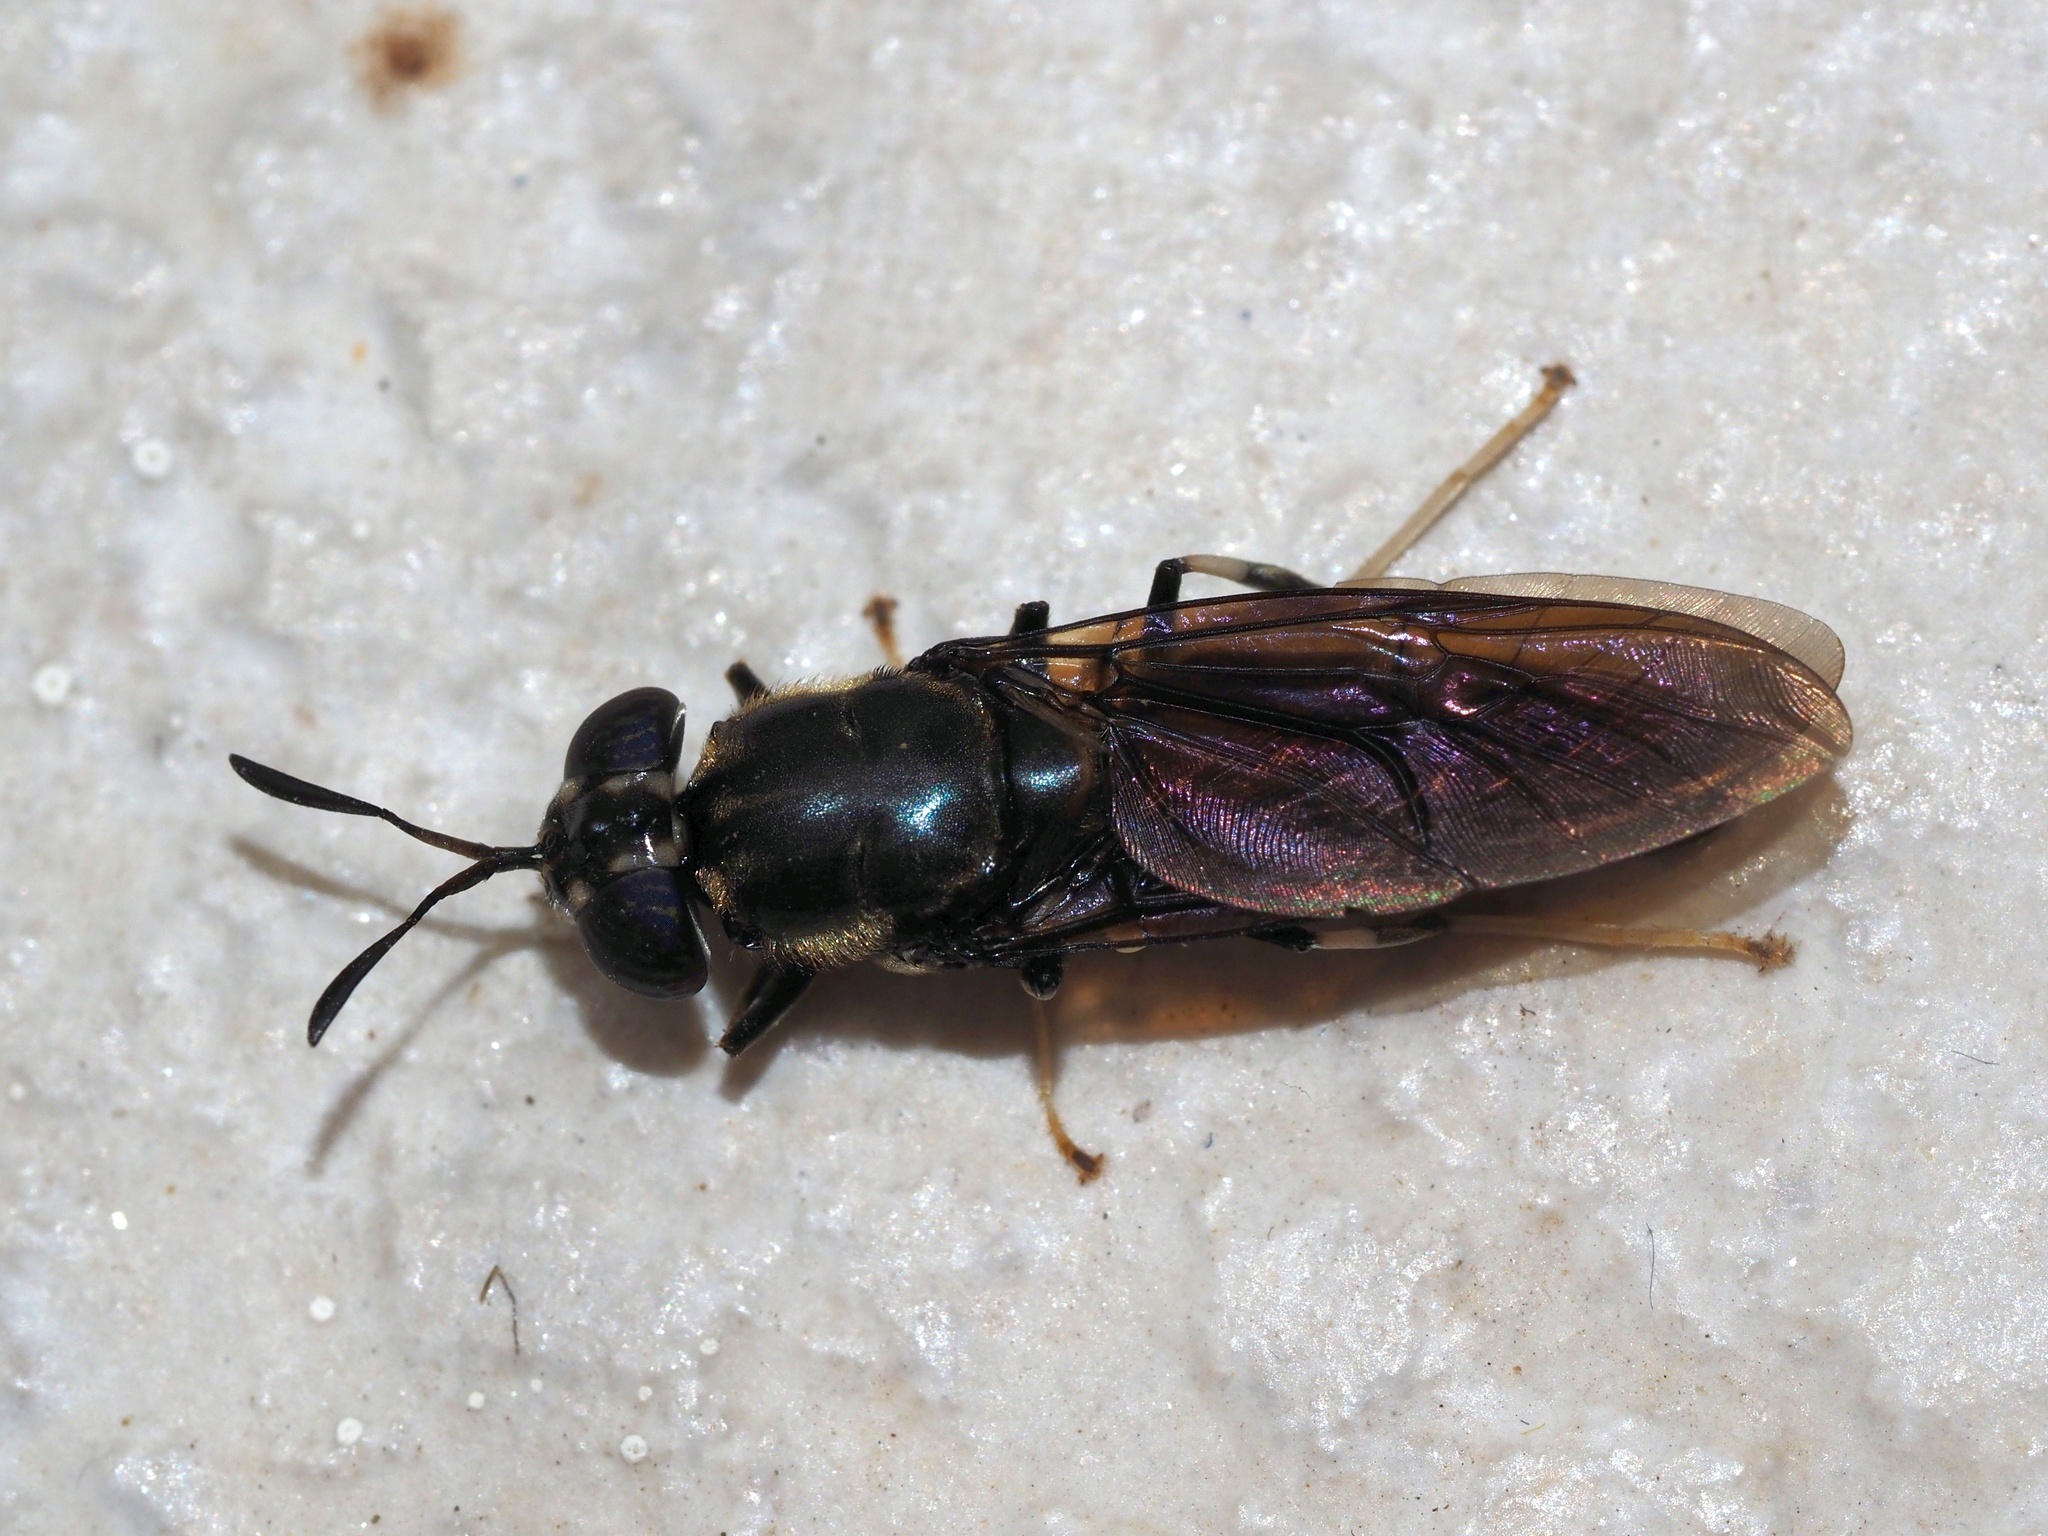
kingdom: Animalia
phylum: Arthropoda
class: Insecta
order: Diptera
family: Stratiomyidae
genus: Hermetia
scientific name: Hermetia illucens
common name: Black soldier fly
